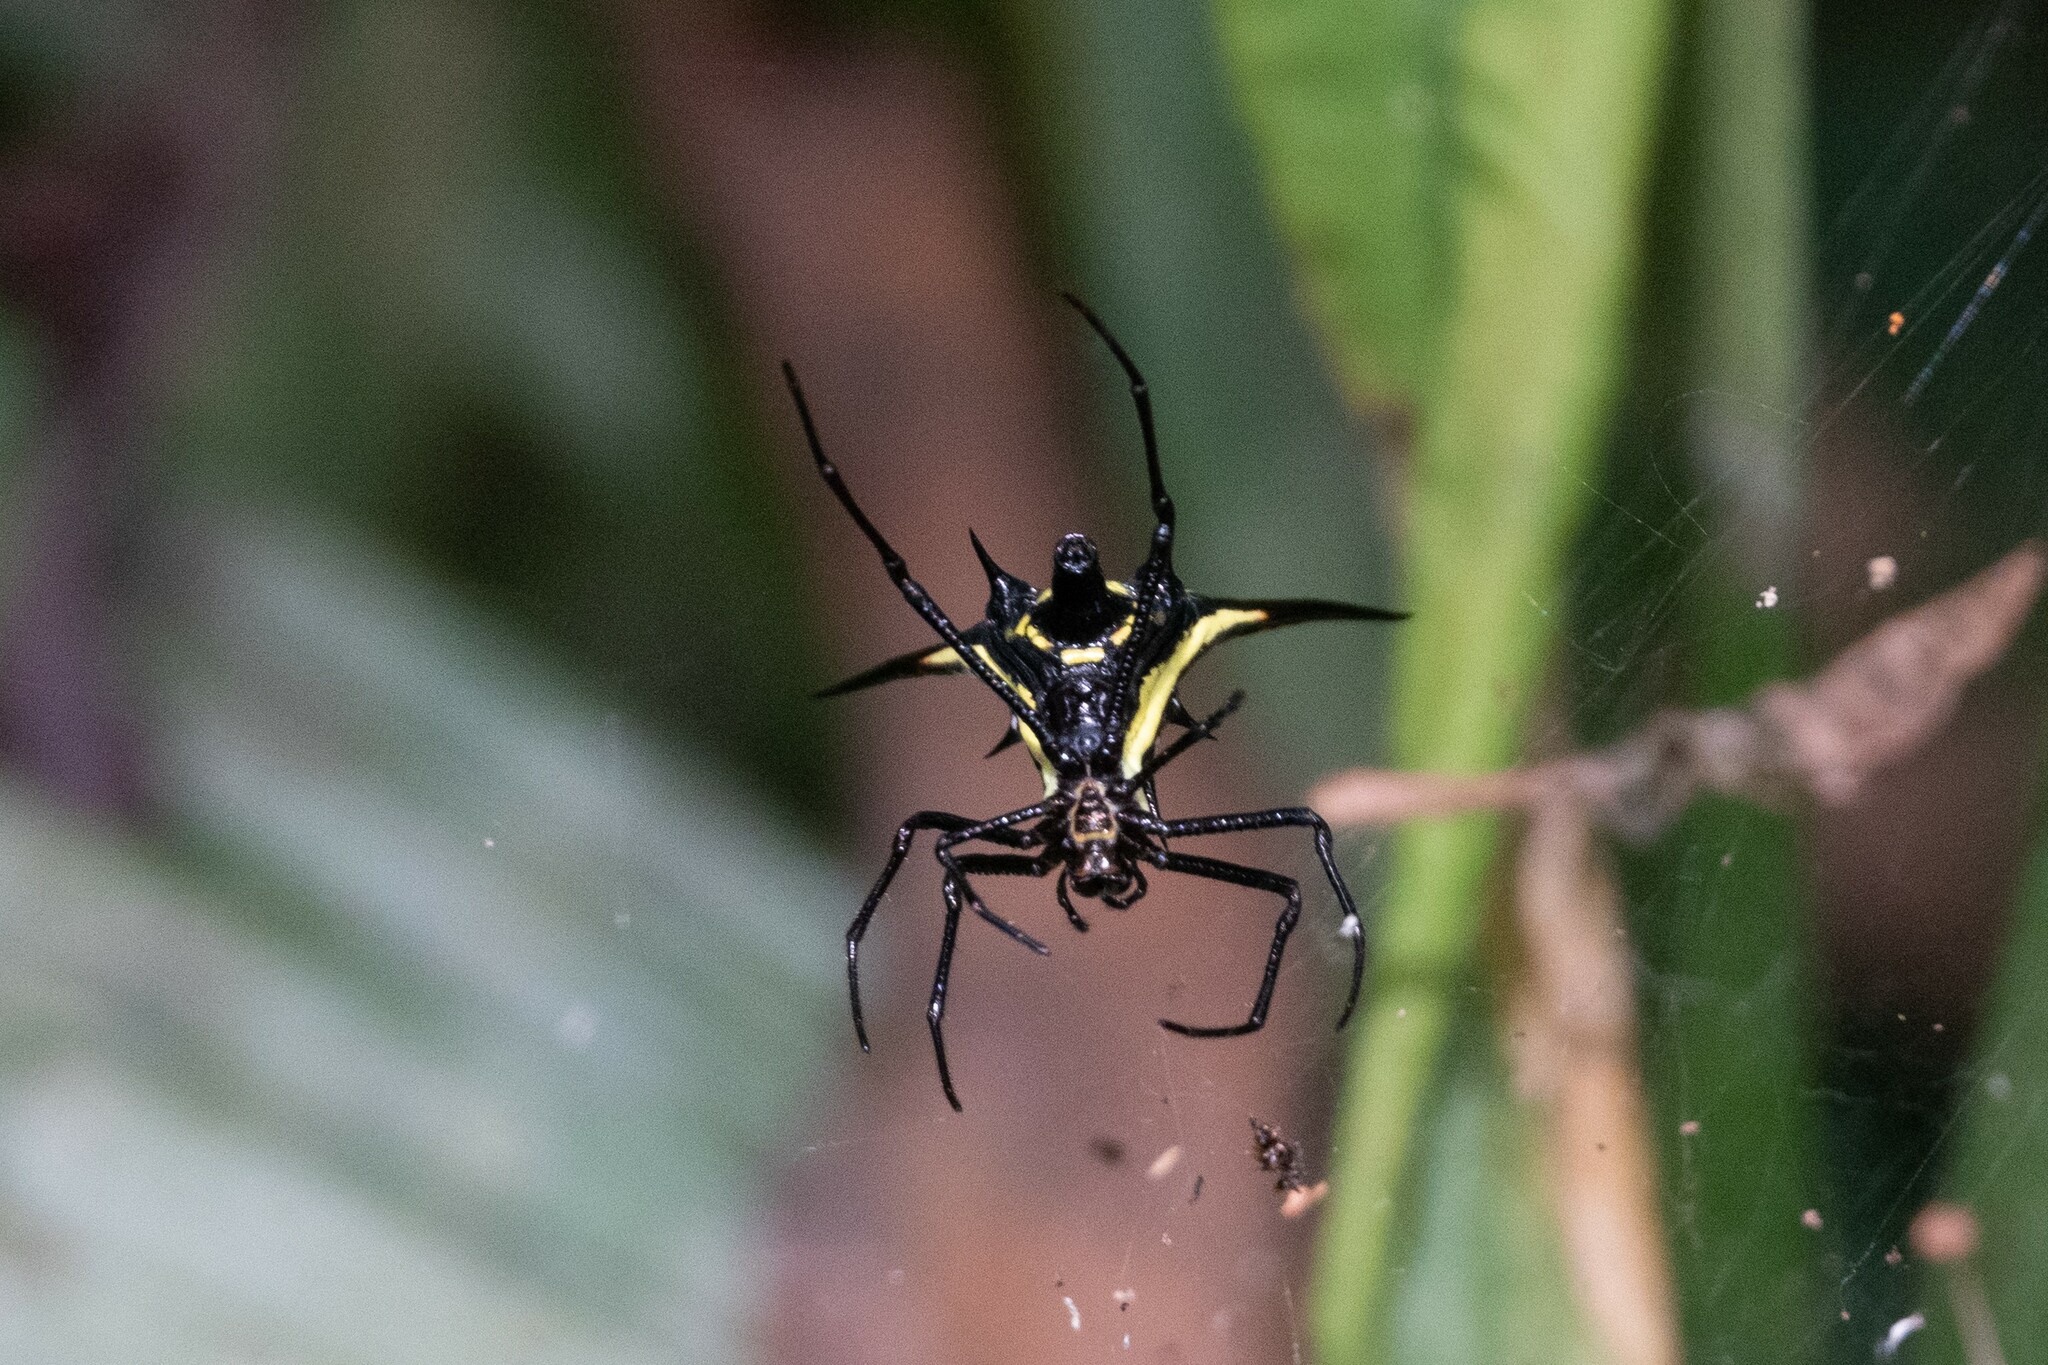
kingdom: Animalia
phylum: Arthropoda
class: Arachnida
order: Araneae
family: Araneidae
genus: Micrathena
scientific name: Micrathena schreibersi
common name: Orb weavers
